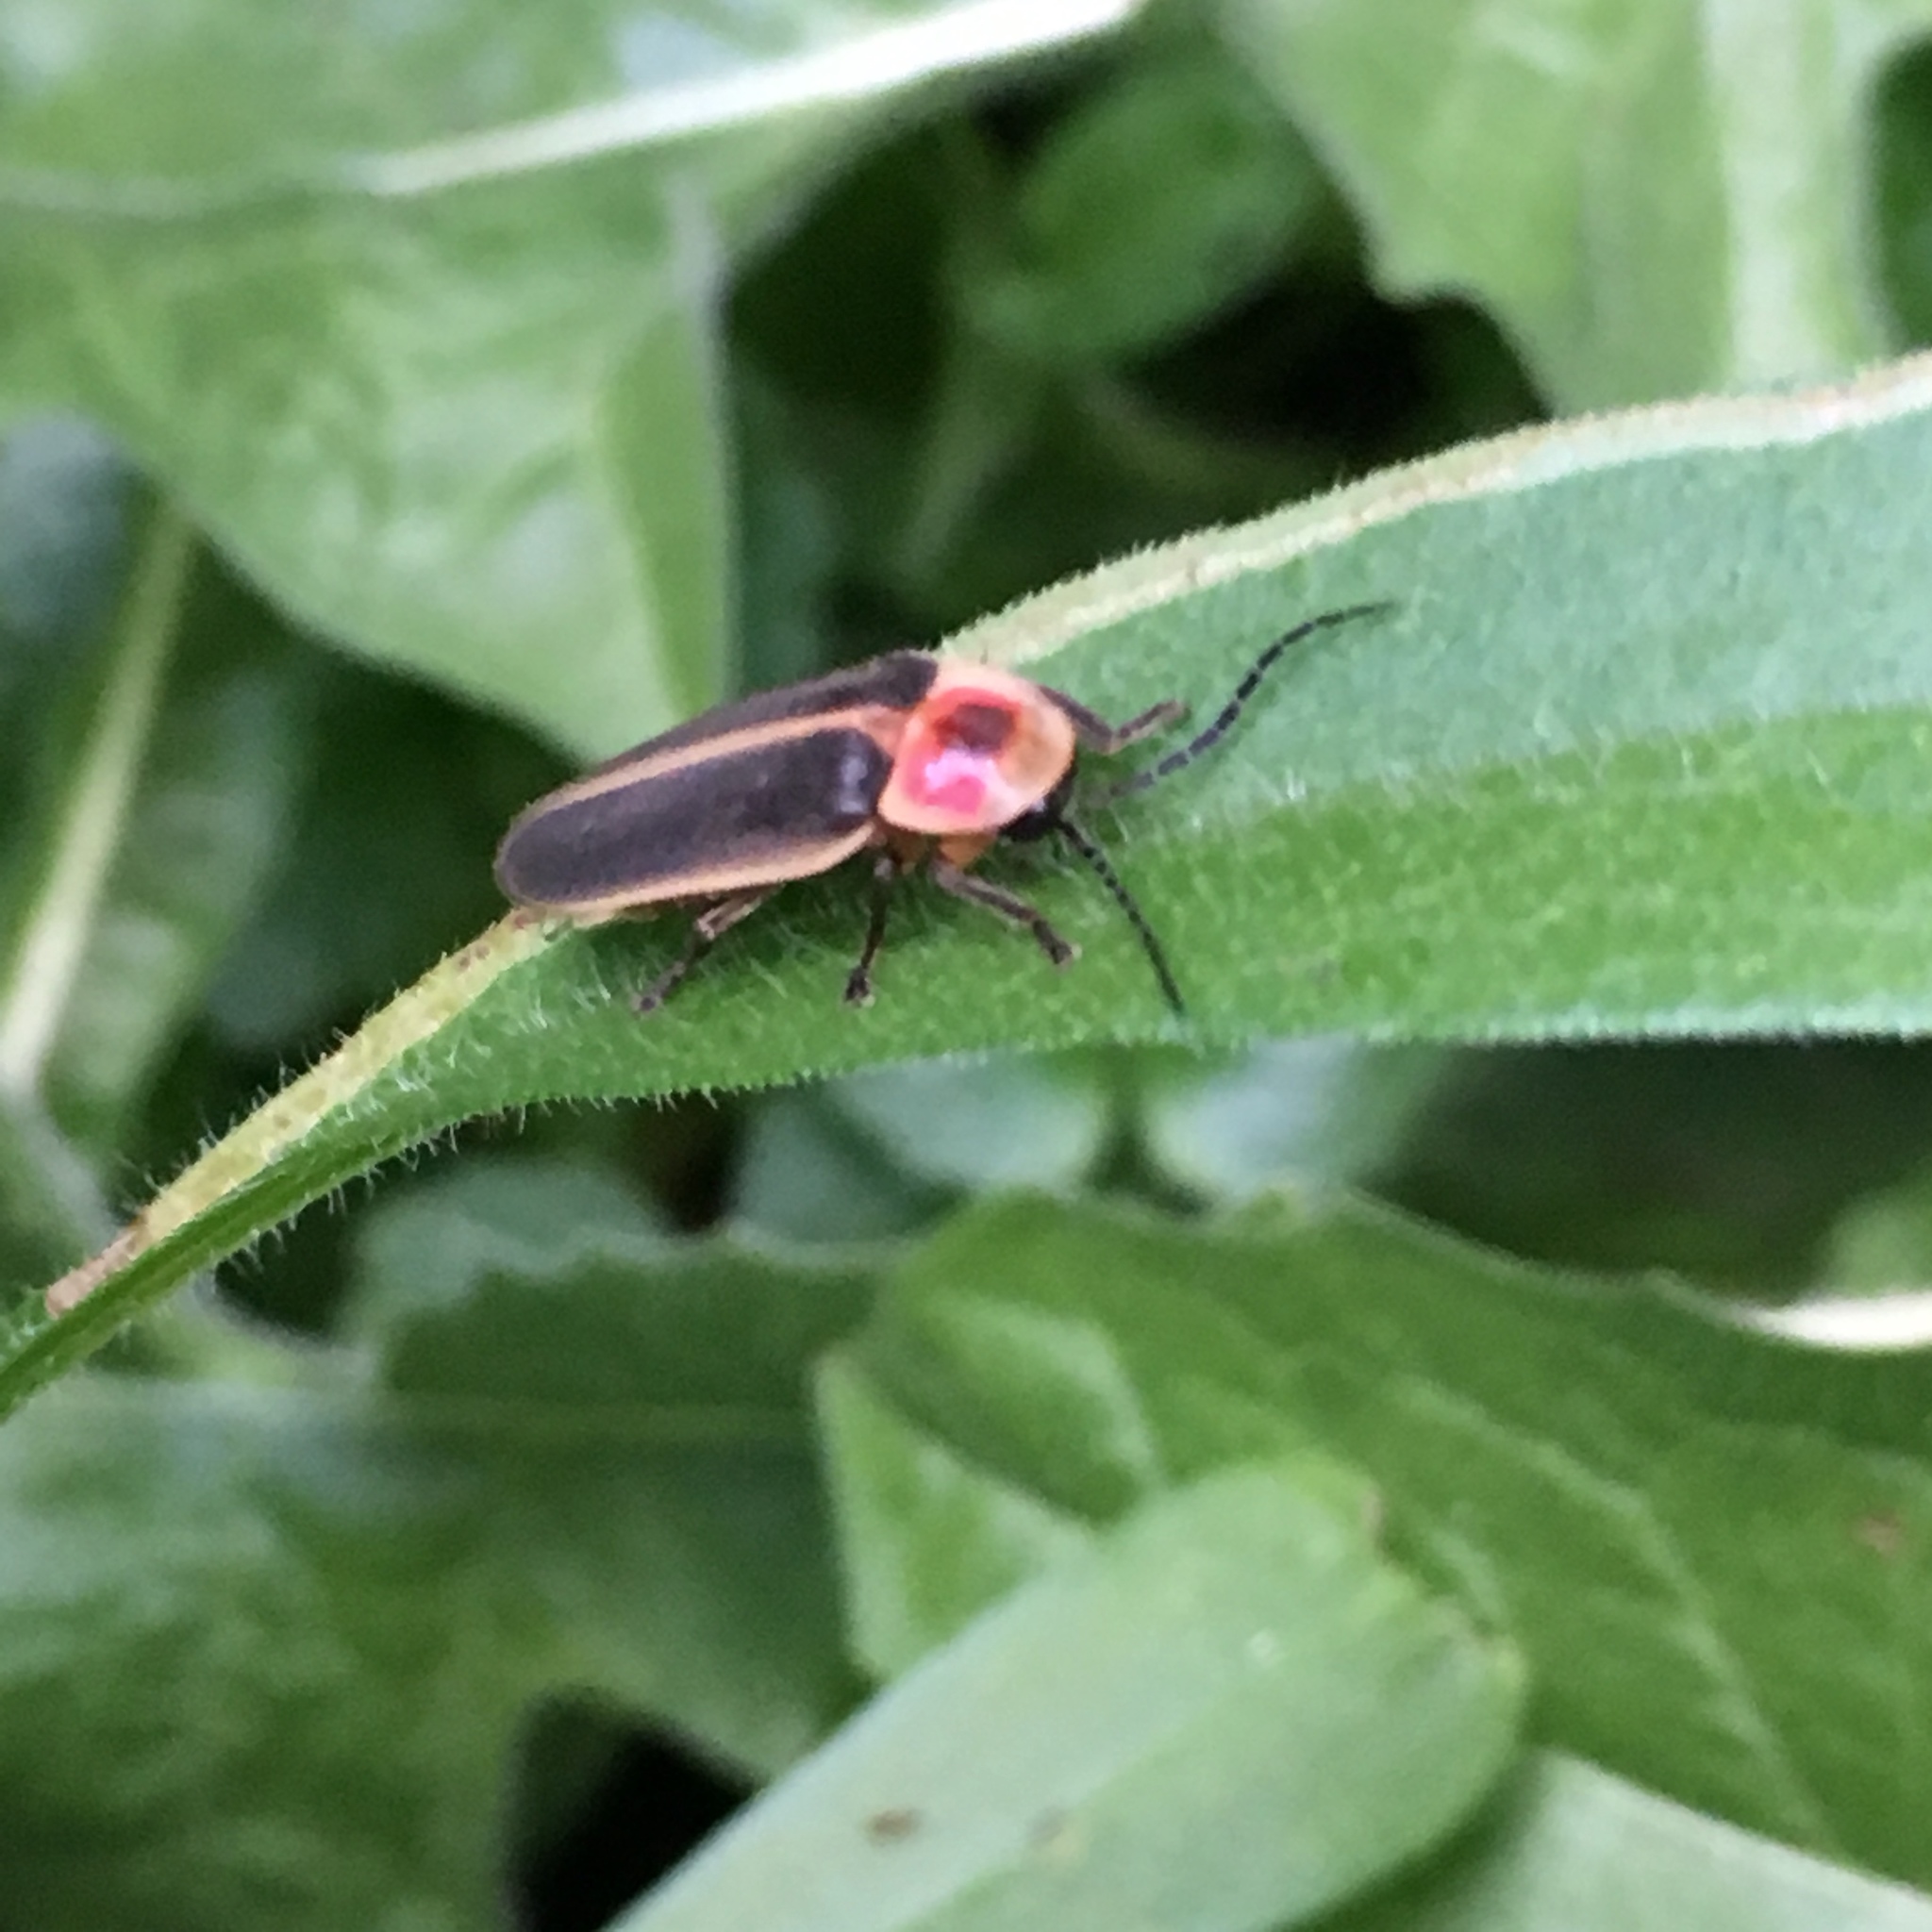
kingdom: Animalia
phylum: Arthropoda
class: Insecta
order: Coleoptera
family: Lampyridae
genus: Photinus
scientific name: Photinus pyralis
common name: Big dipper firefly
